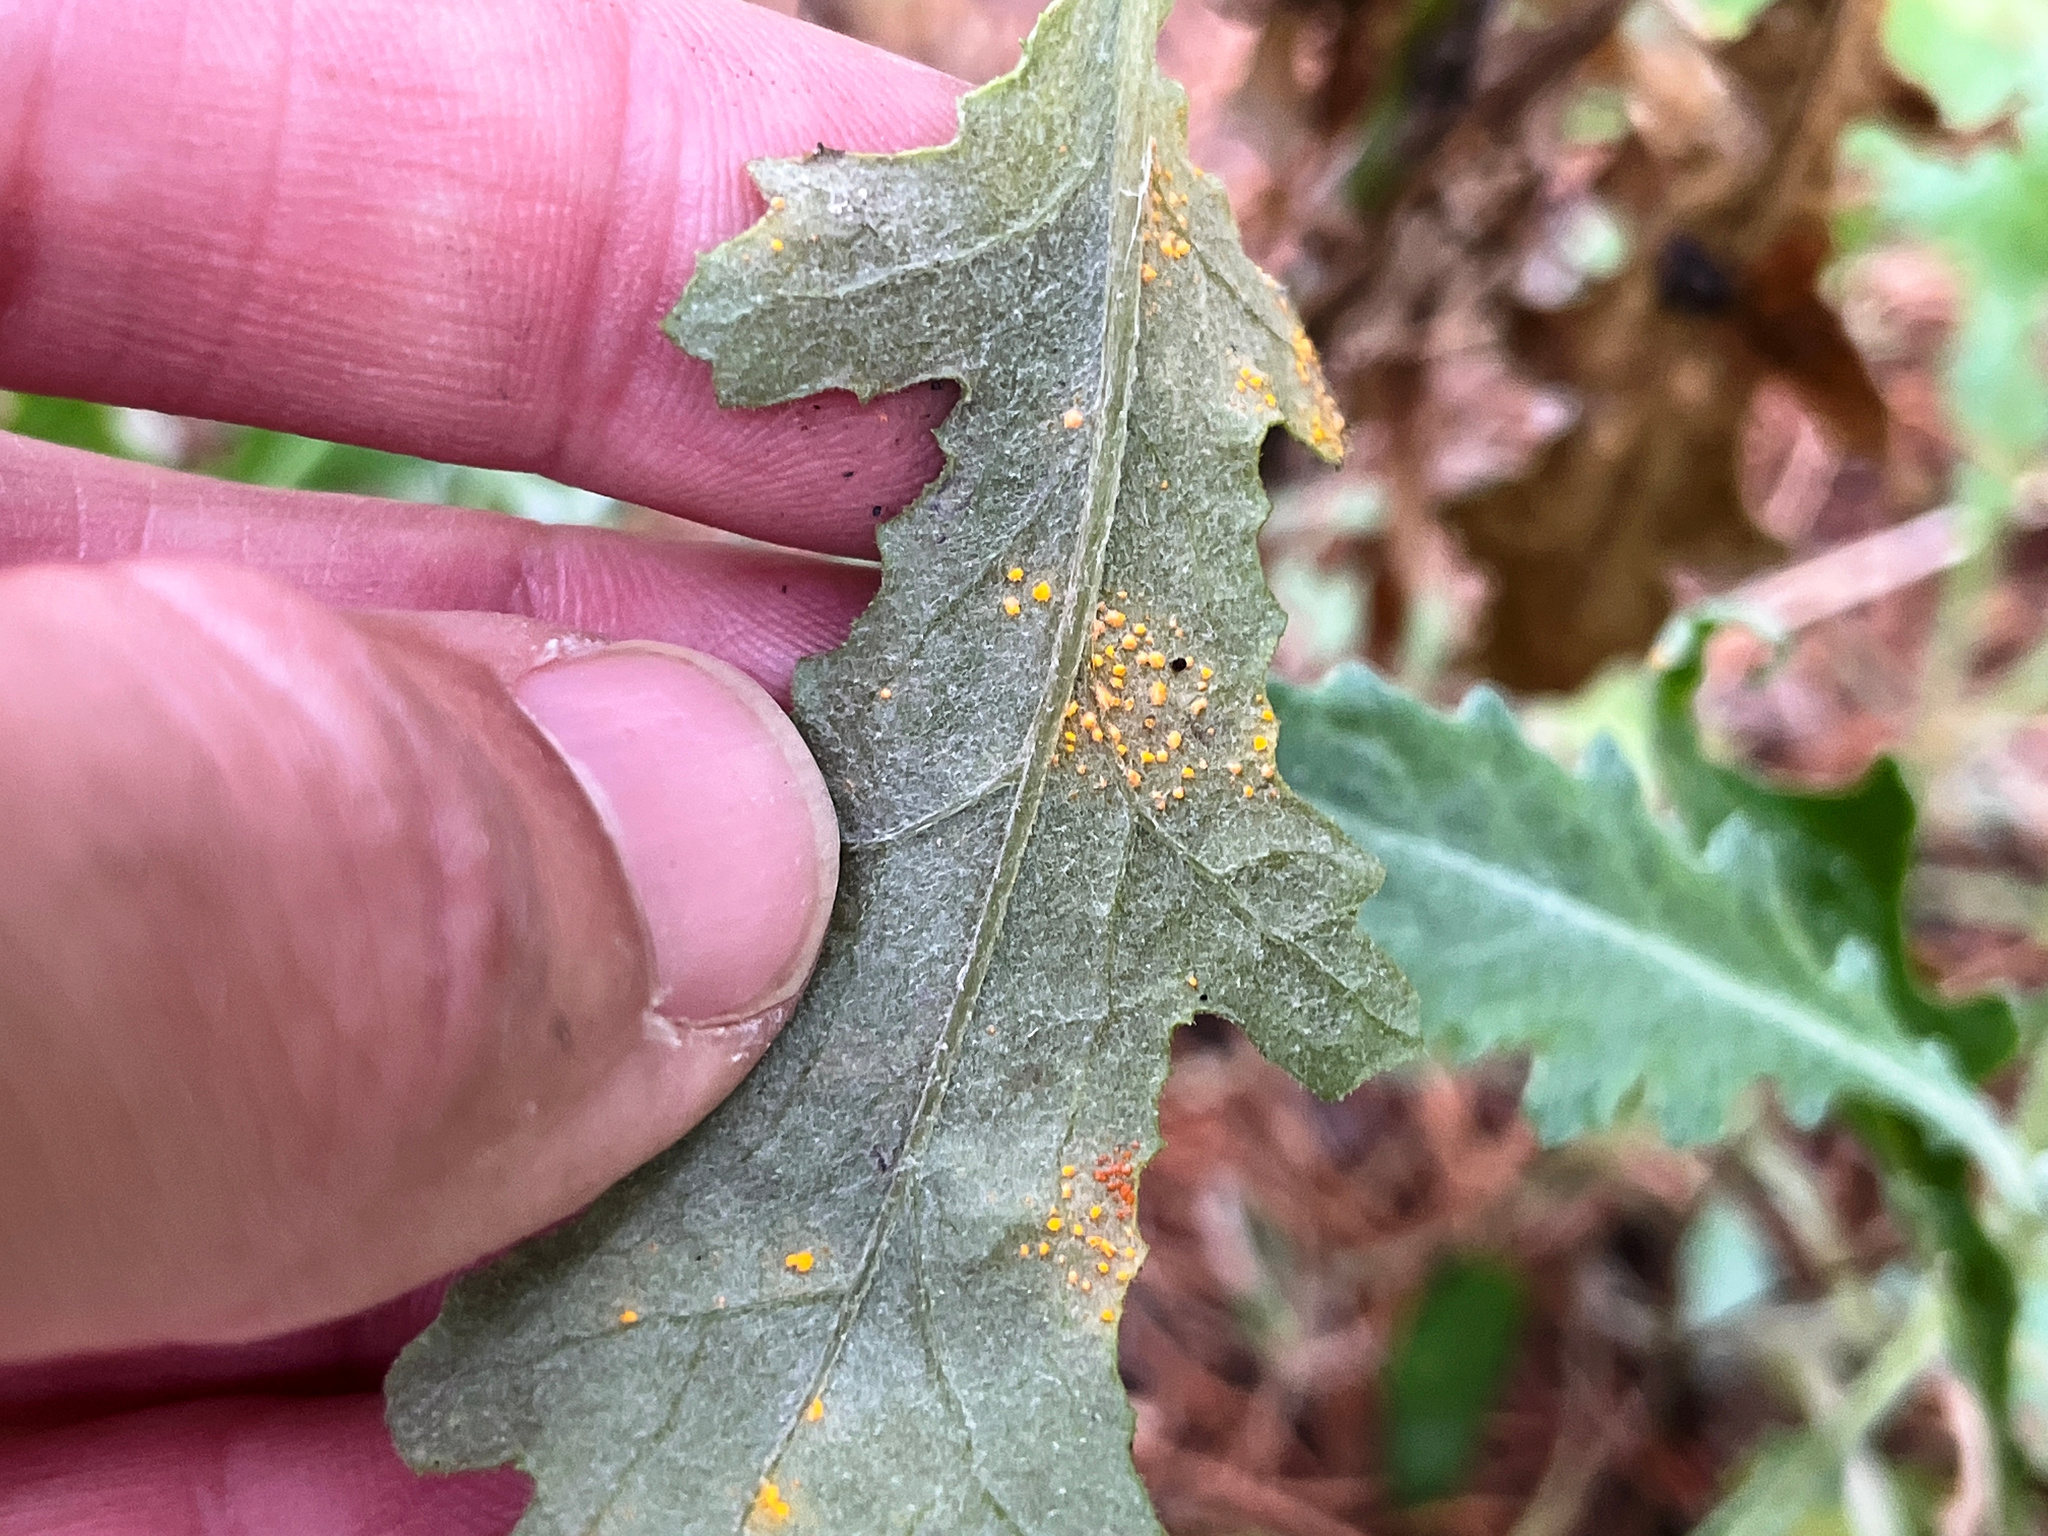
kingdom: Fungi
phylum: Basidiomycota
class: Pucciniomycetes
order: Pucciniales
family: Coleosporiaceae
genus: Coleosporium
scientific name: Coleosporium tussilaginis
